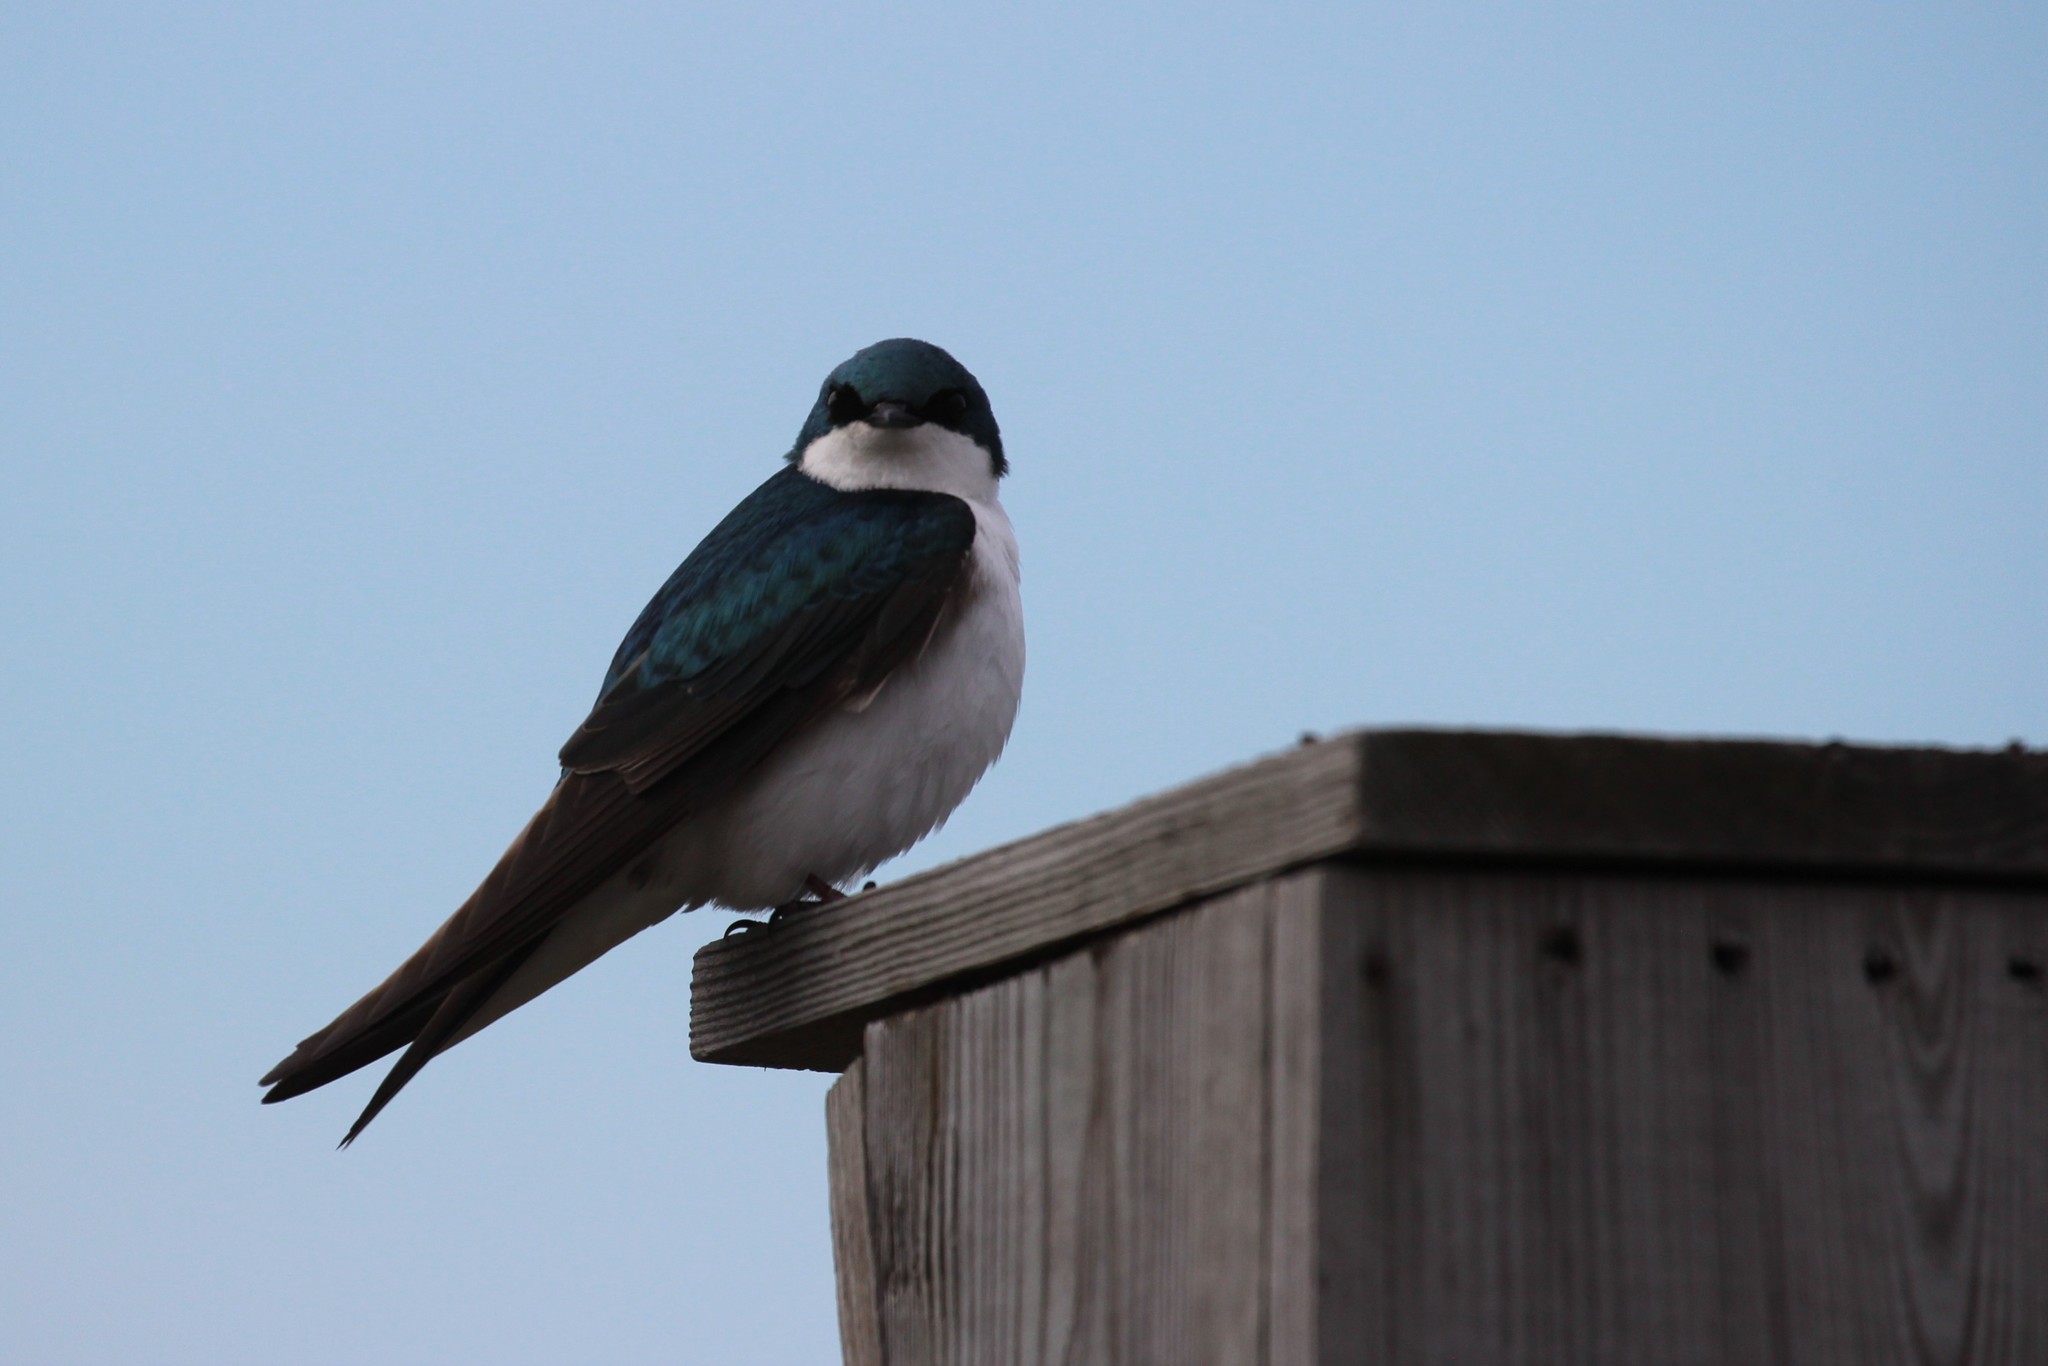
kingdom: Animalia
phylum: Chordata
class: Aves
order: Passeriformes
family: Hirundinidae
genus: Tachycineta
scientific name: Tachycineta bicolor
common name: Tree swallow
